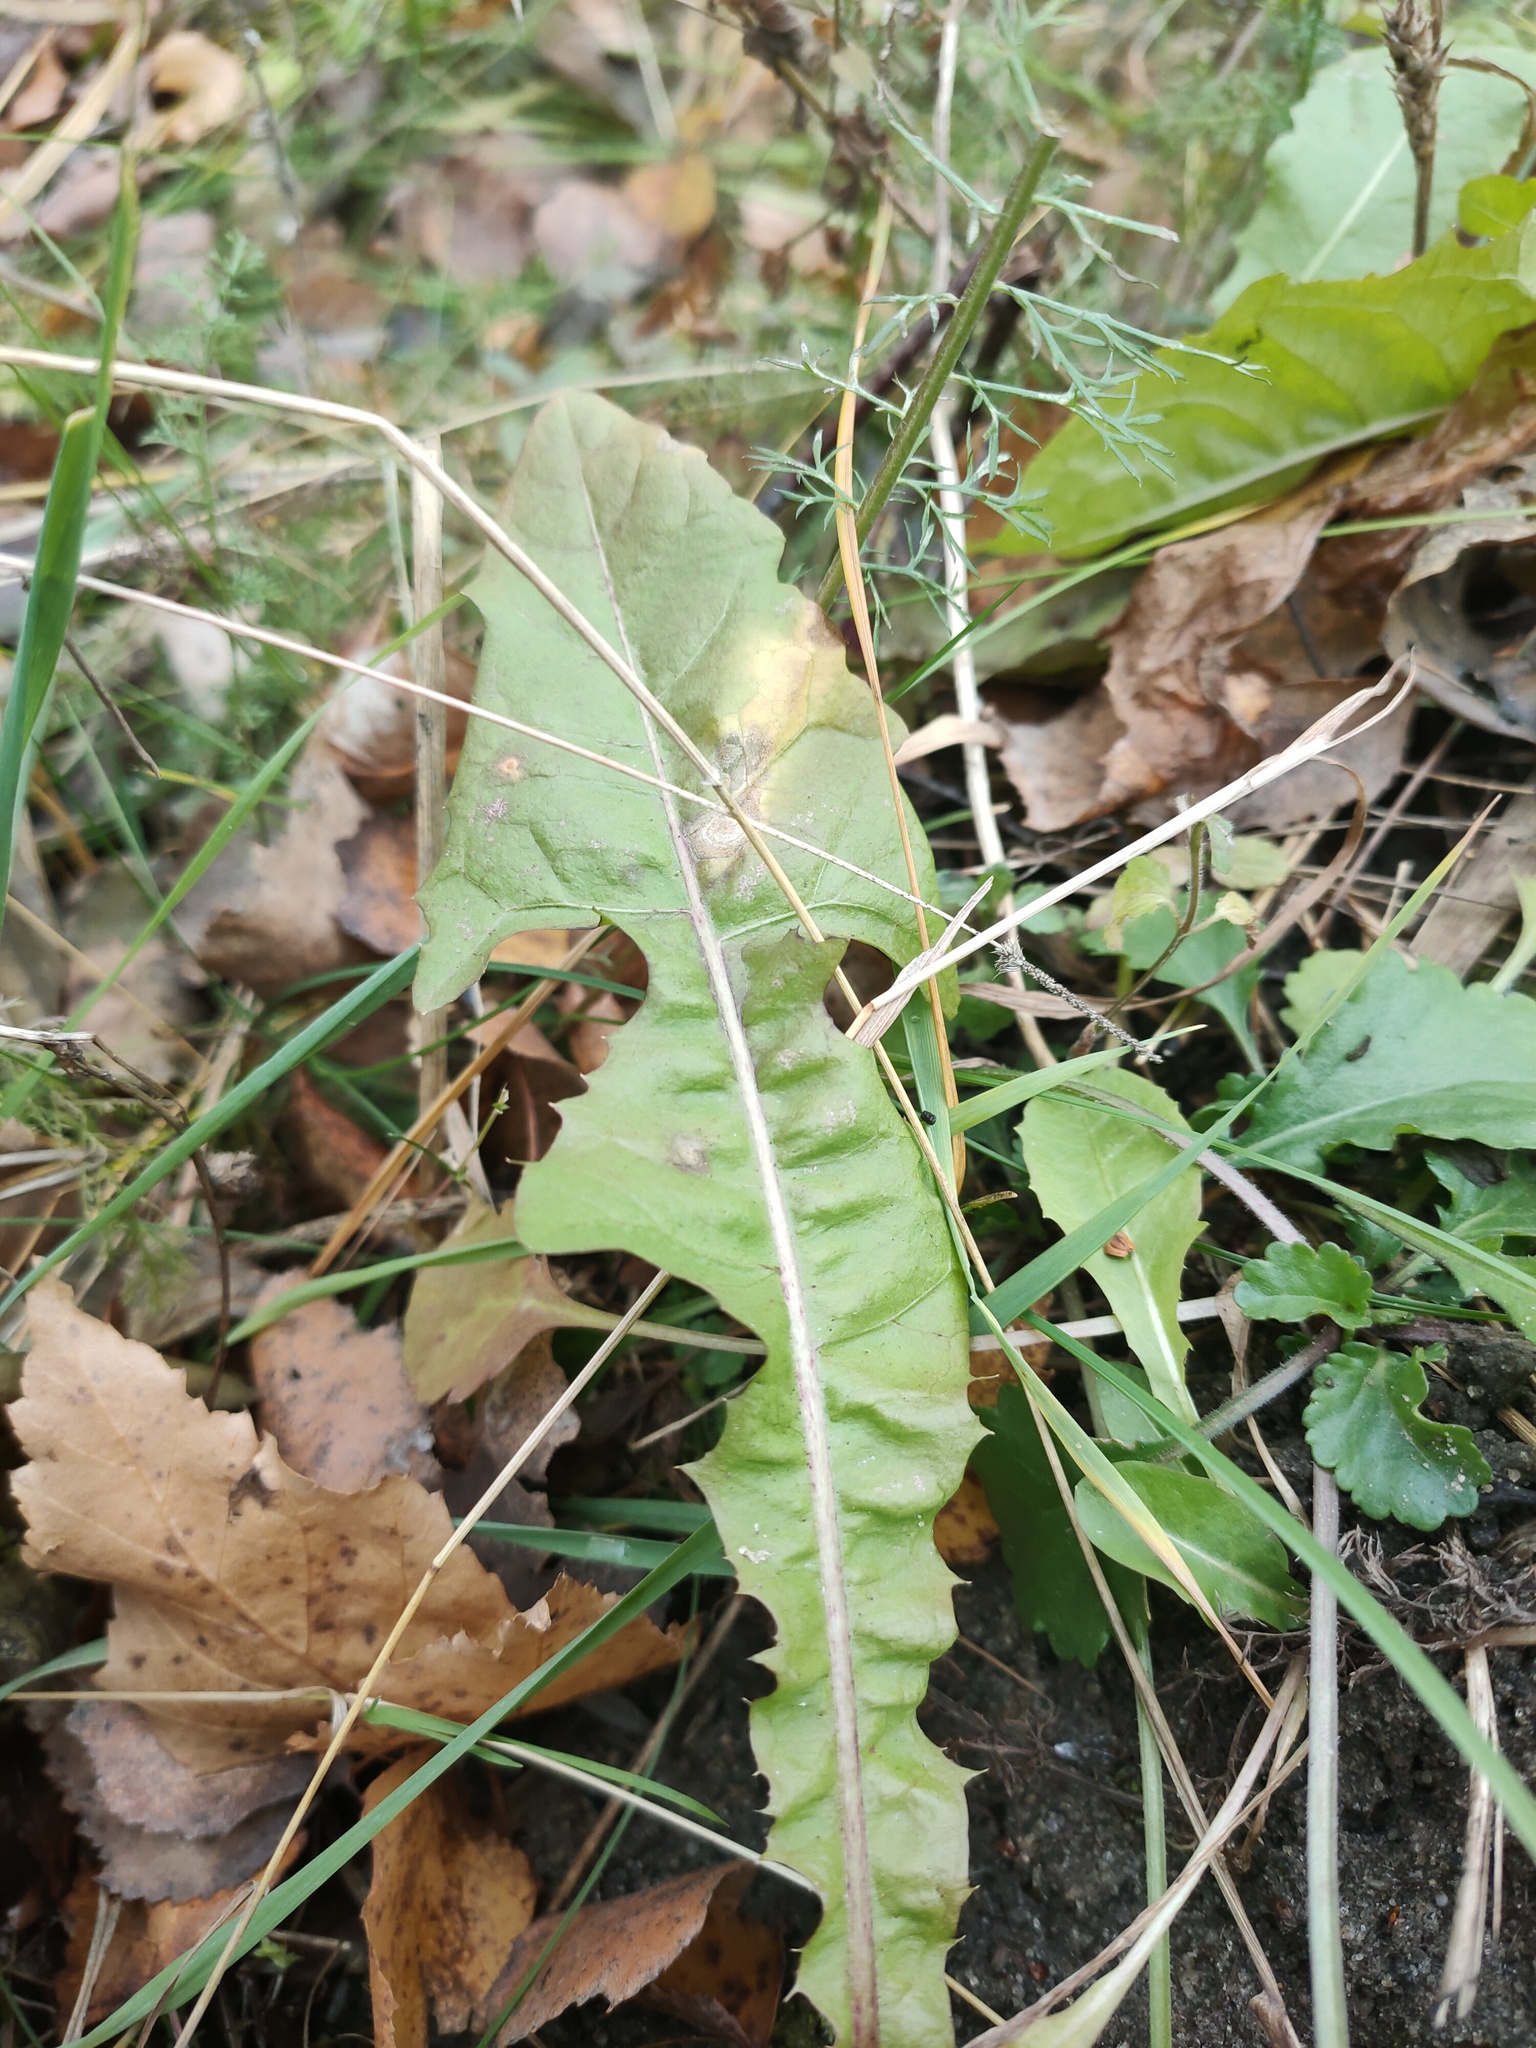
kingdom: Plantae
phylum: Tracheophyta
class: Magnoliopsida
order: Asterales
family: Asteraceae
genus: Taraxacum
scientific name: Taraxacum officinale
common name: Common dandelion
